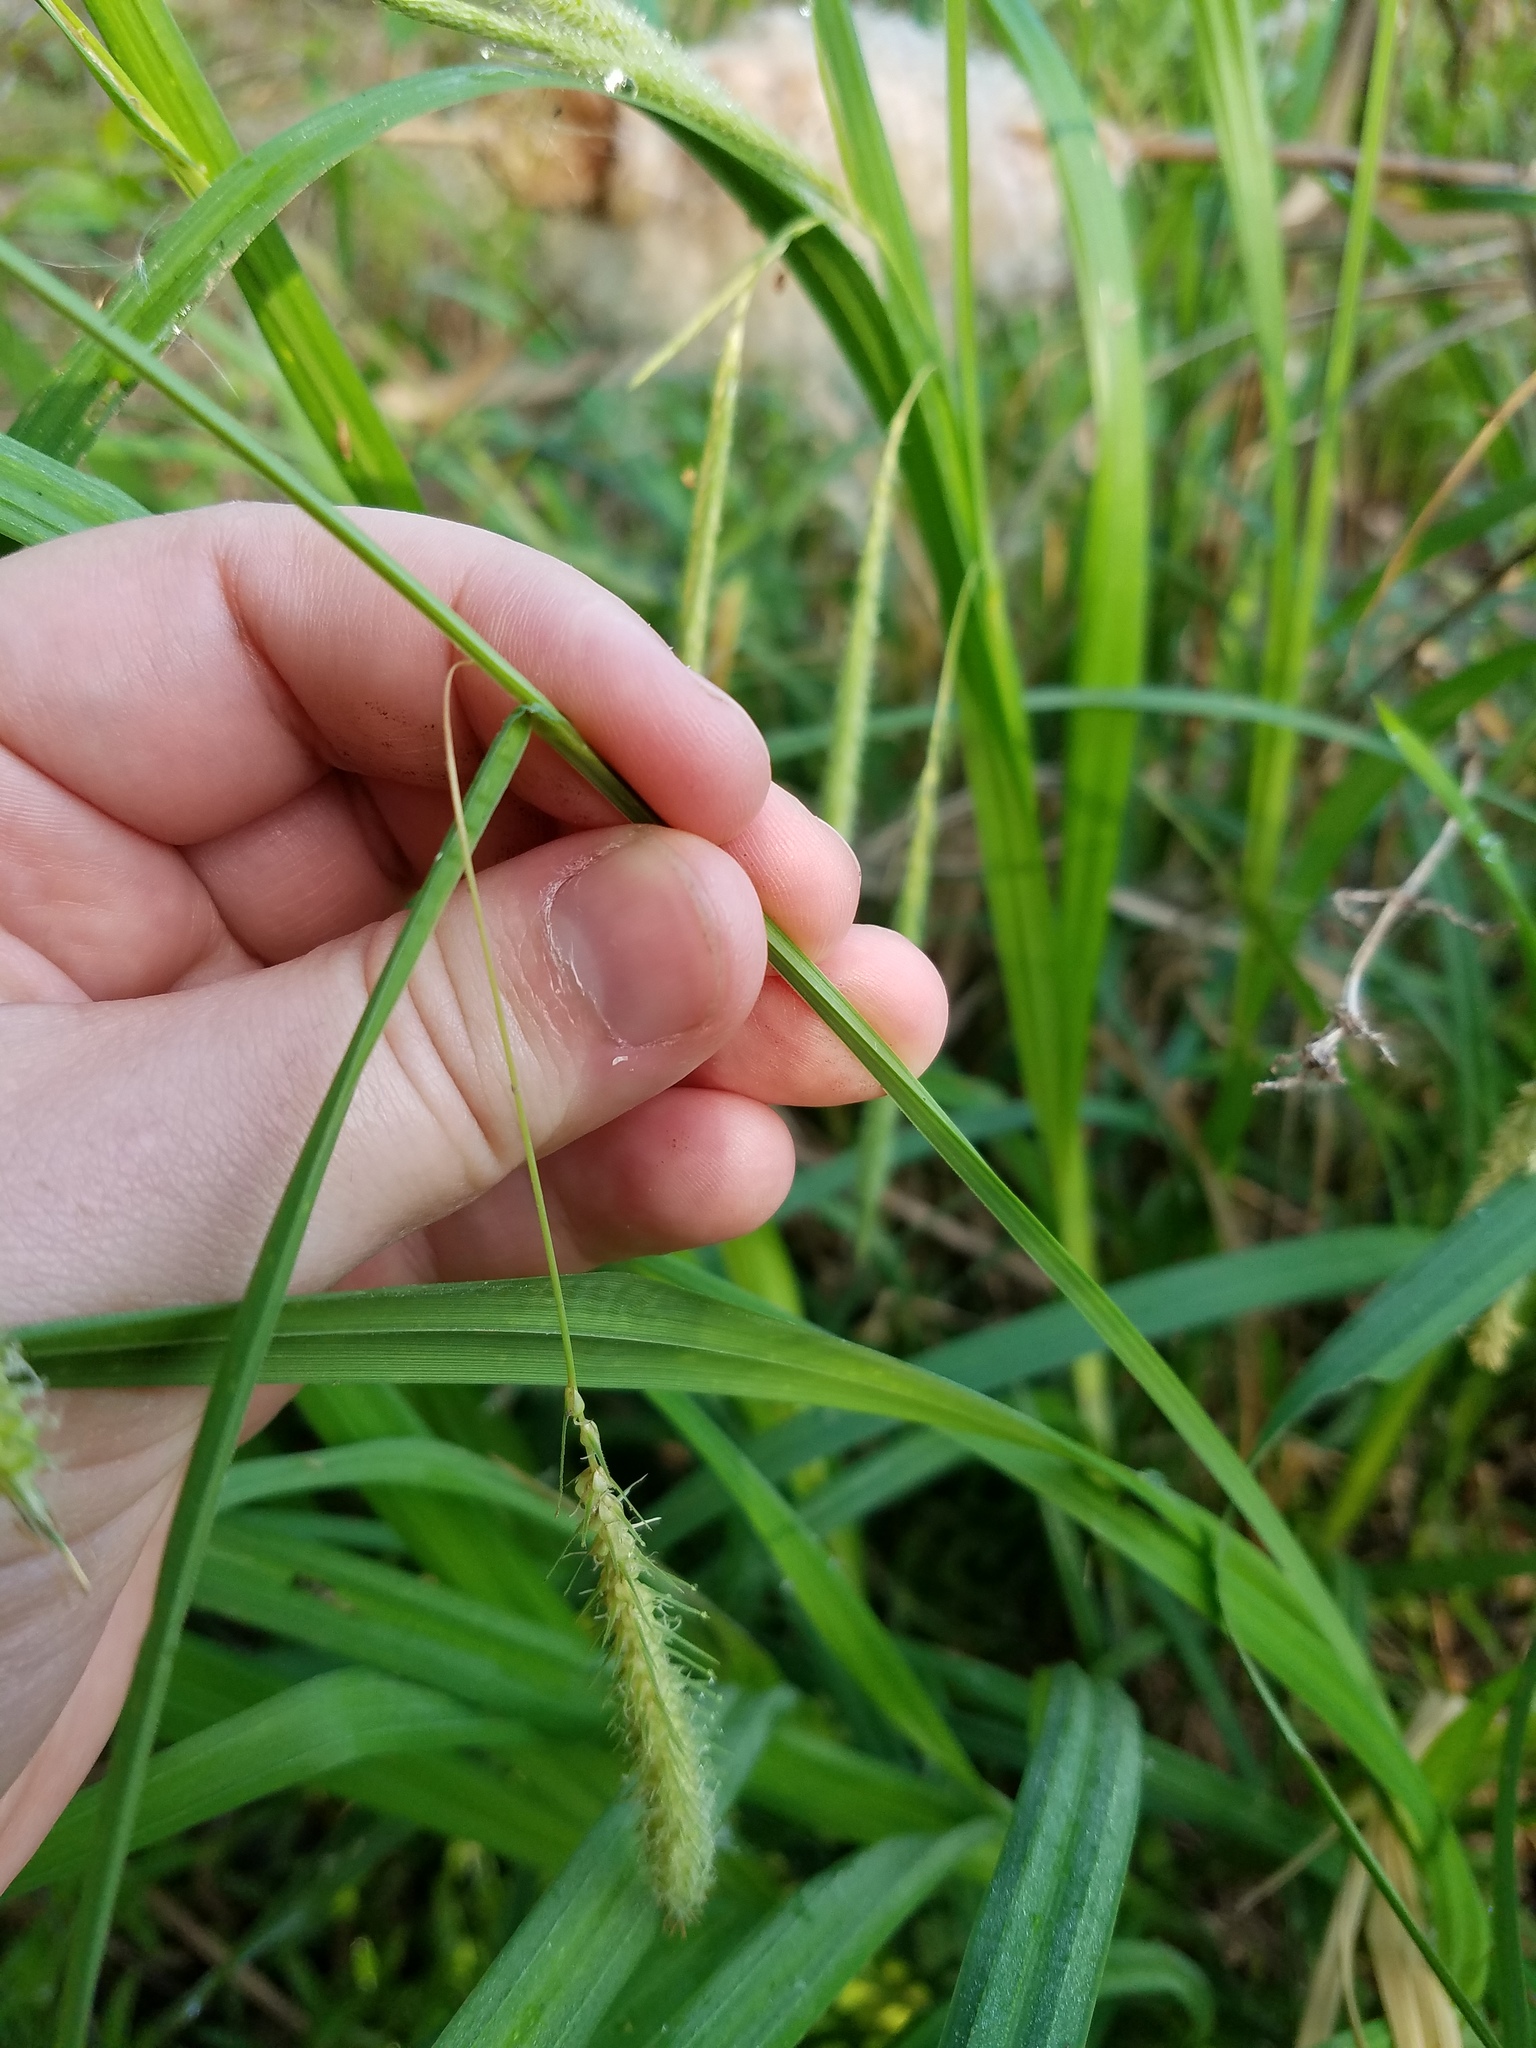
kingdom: Plantae
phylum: Tracheophyta
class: Liliopsida
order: Poales
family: Cyperaceae
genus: Carex
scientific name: Carex crinita
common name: Fringed sedge
